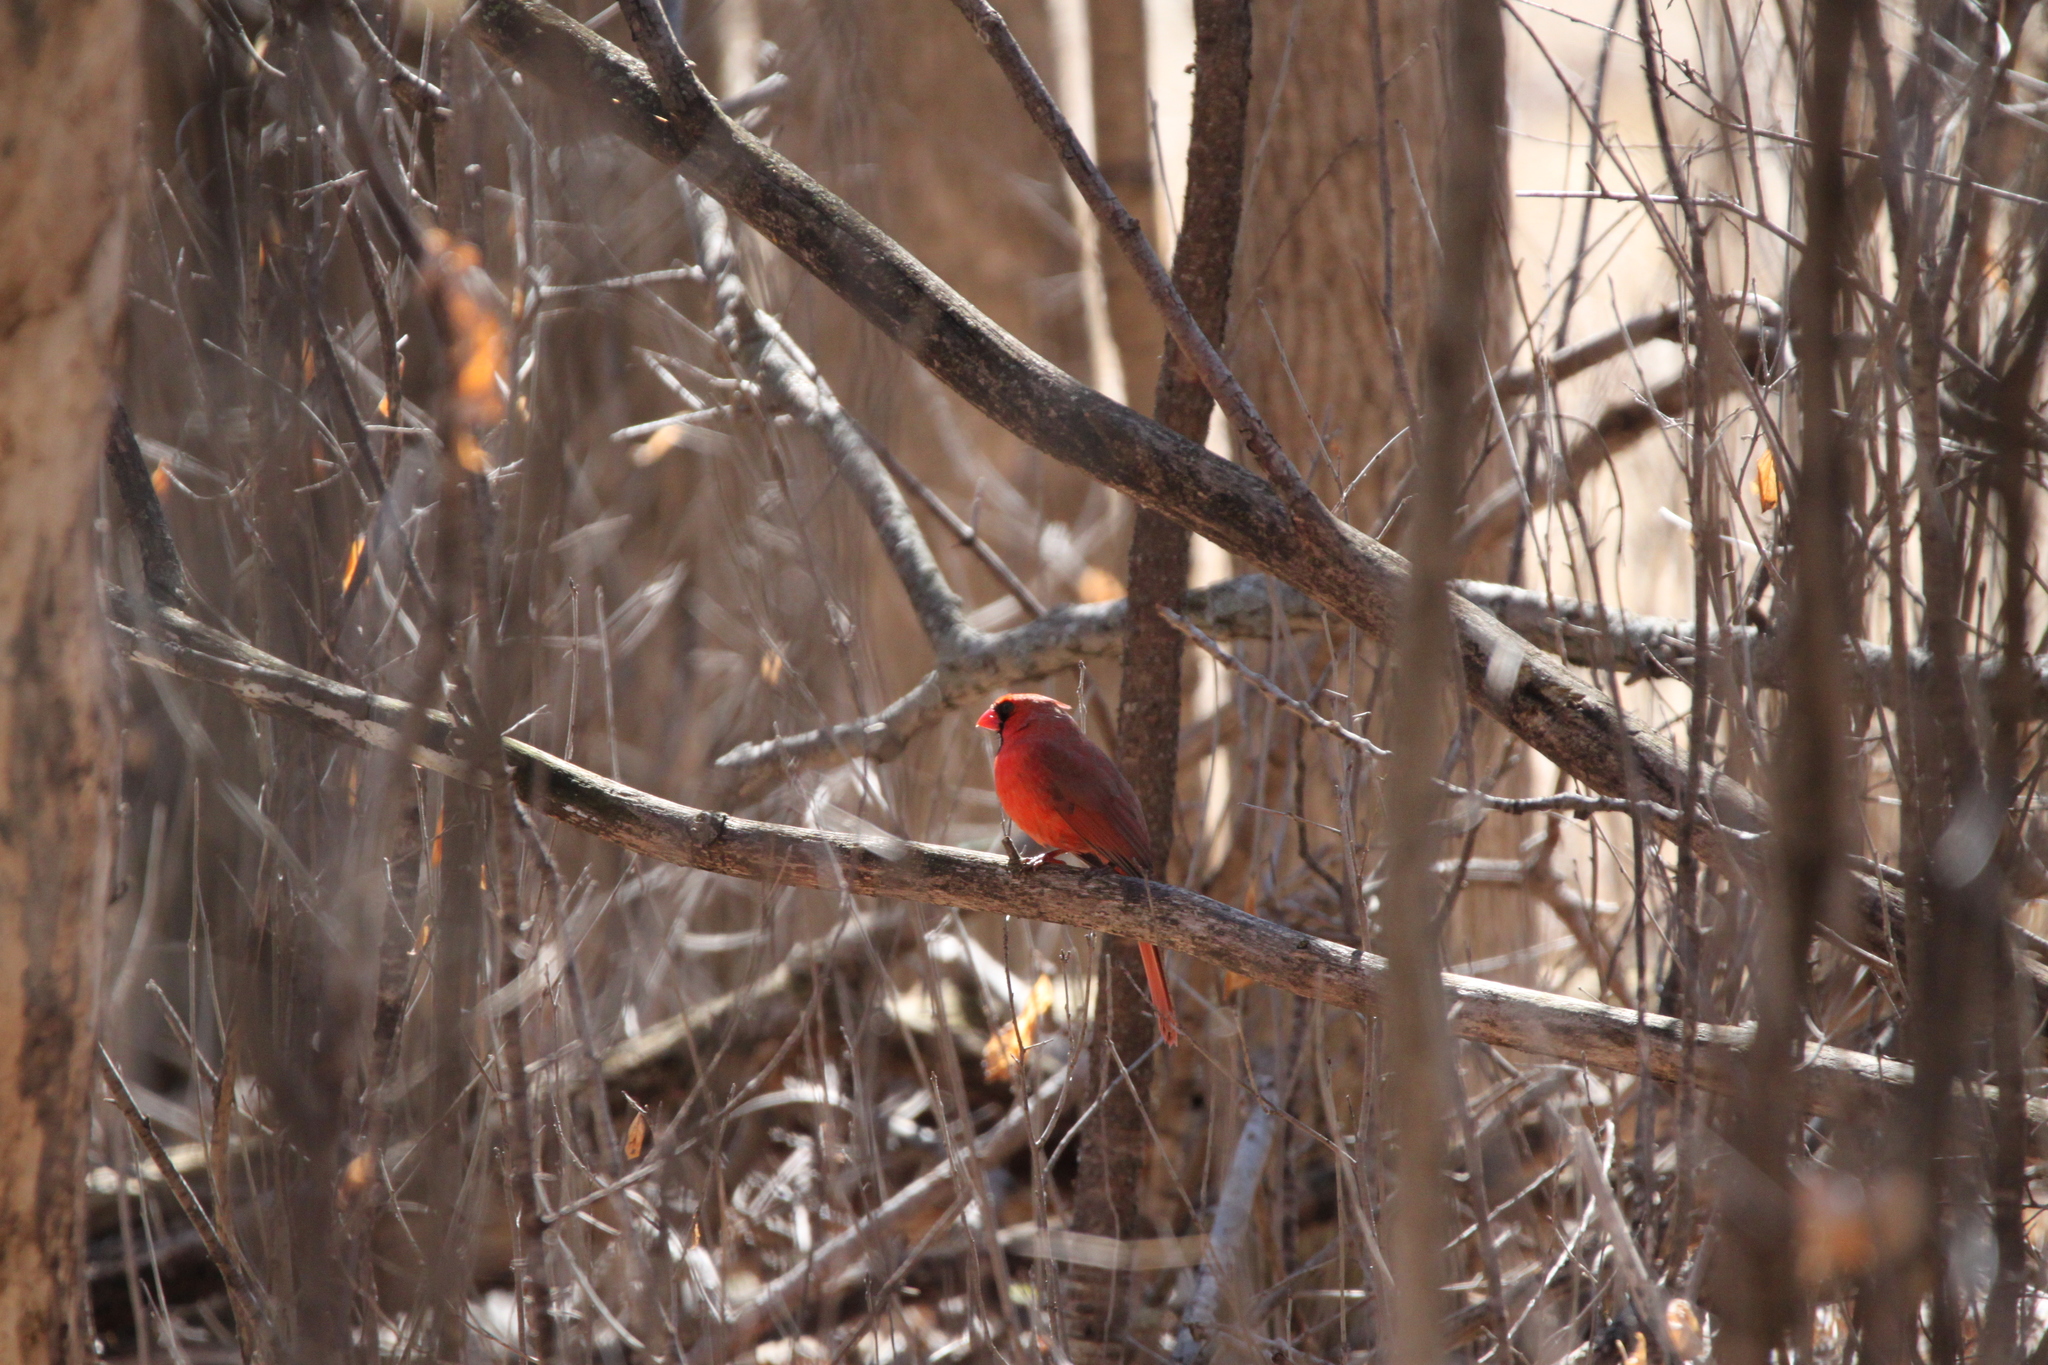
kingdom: Animalia
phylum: Chordata
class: Aves
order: Passeriformes
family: Cardinalidae
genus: Cardinalis
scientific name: Cardinalis cardinalis
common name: Northern cardinal
